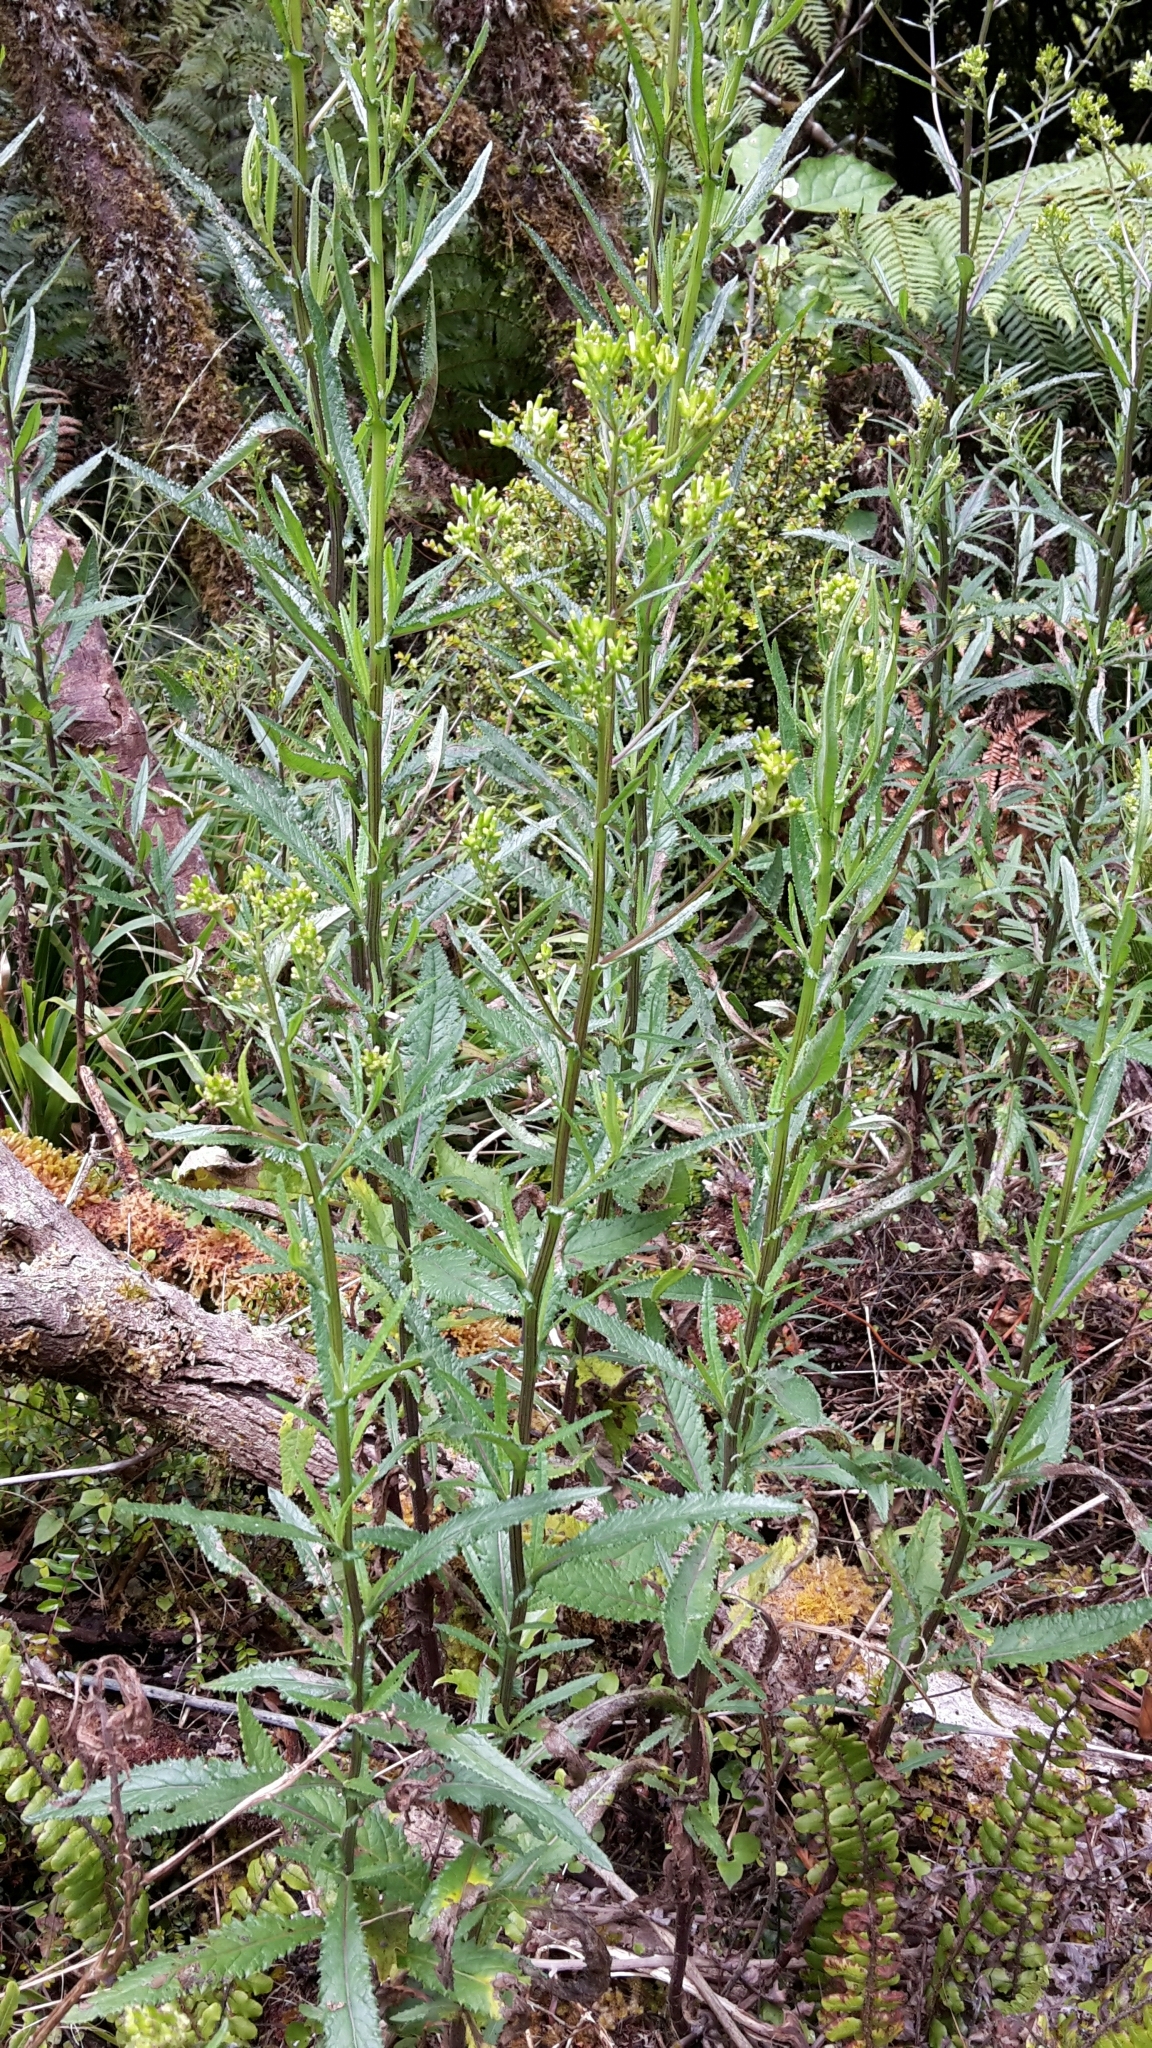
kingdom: Plantae
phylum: Tracheophyta
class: Magnoliopsida
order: Asterales
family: Asteraceae
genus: Senecio
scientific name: Senecio minimus
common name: Toothed fireweed
